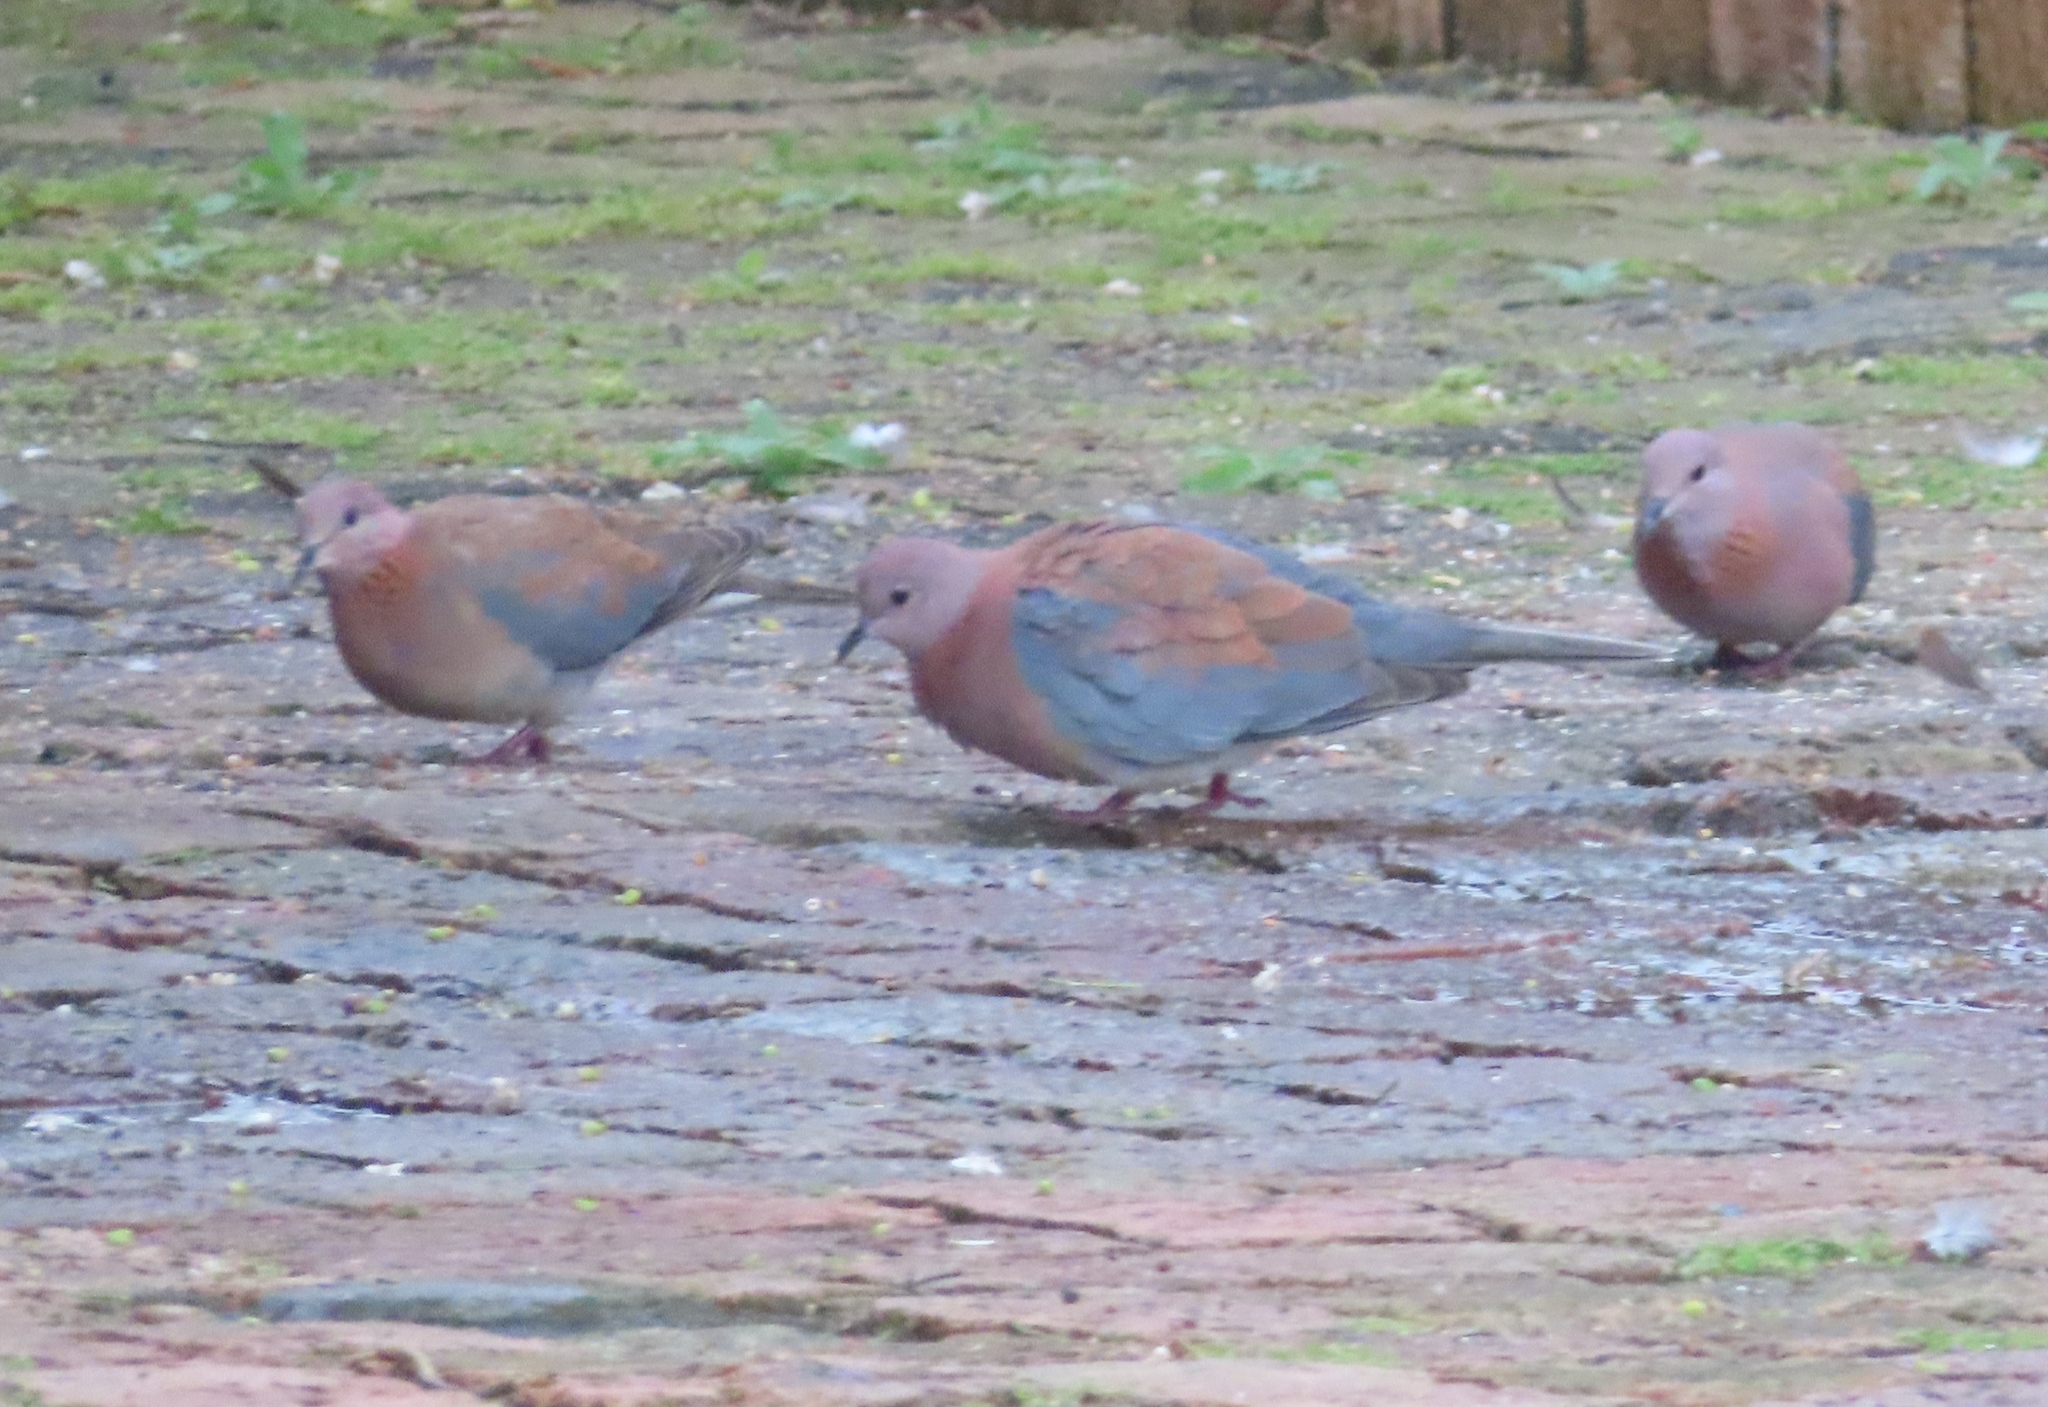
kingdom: Animalia
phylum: Chordata
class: Aves
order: Columbiformes
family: Columbidae
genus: Spilopelia
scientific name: Spilopelia senegalensis
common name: Laughing dove
